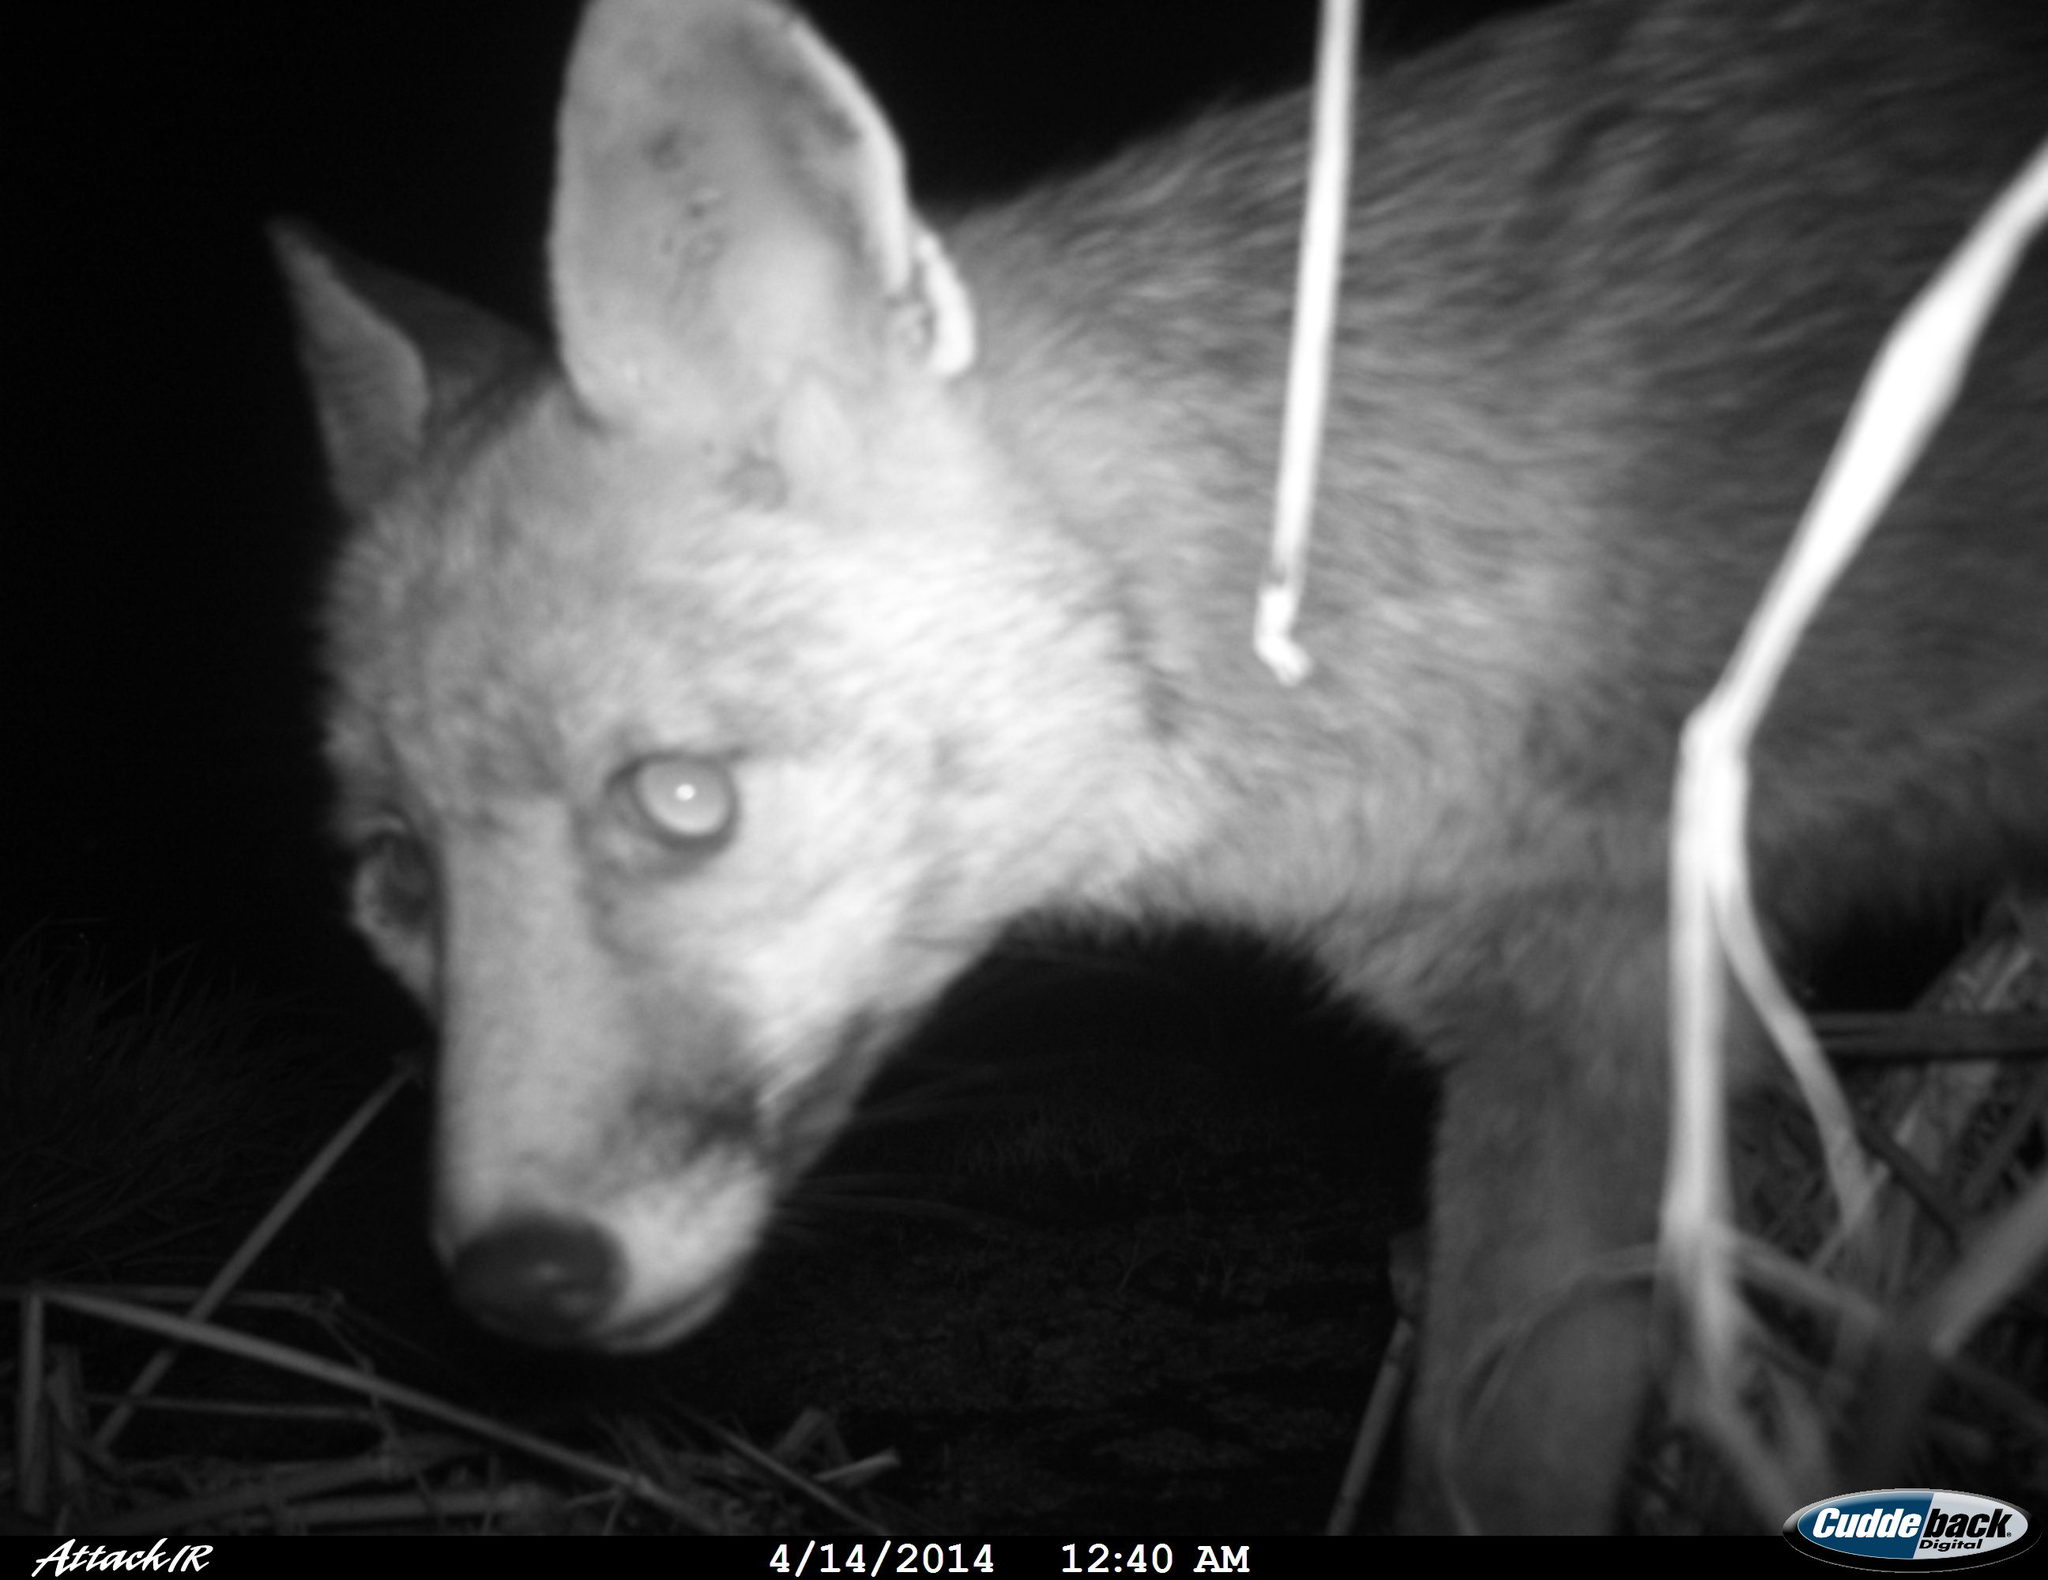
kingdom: Animalia
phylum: Chordata
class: Mammalia
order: Carnivora
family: Canidae
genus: Vulpes
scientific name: Vulpes vulpes
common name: Red fox
